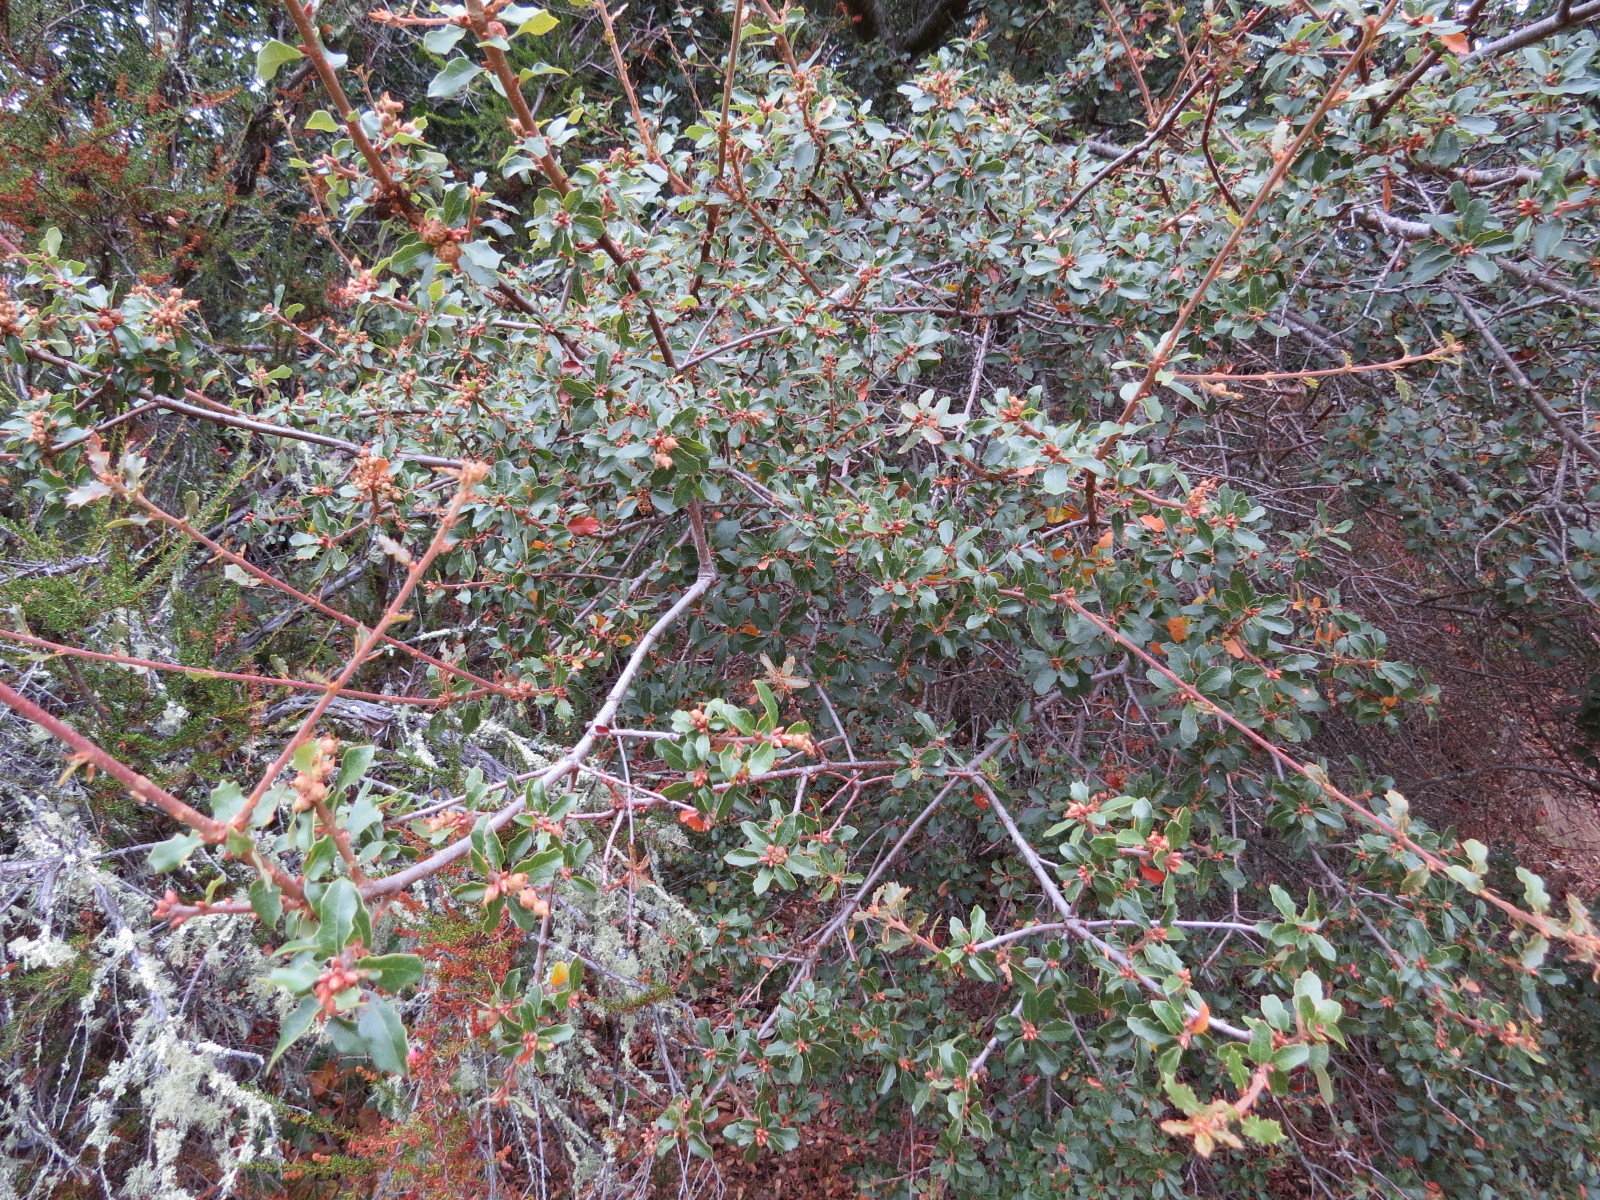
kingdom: Animalia
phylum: Arthropoda
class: Insecta
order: Hymenoptera
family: Cynipidae
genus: Andricus
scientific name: Andricus
